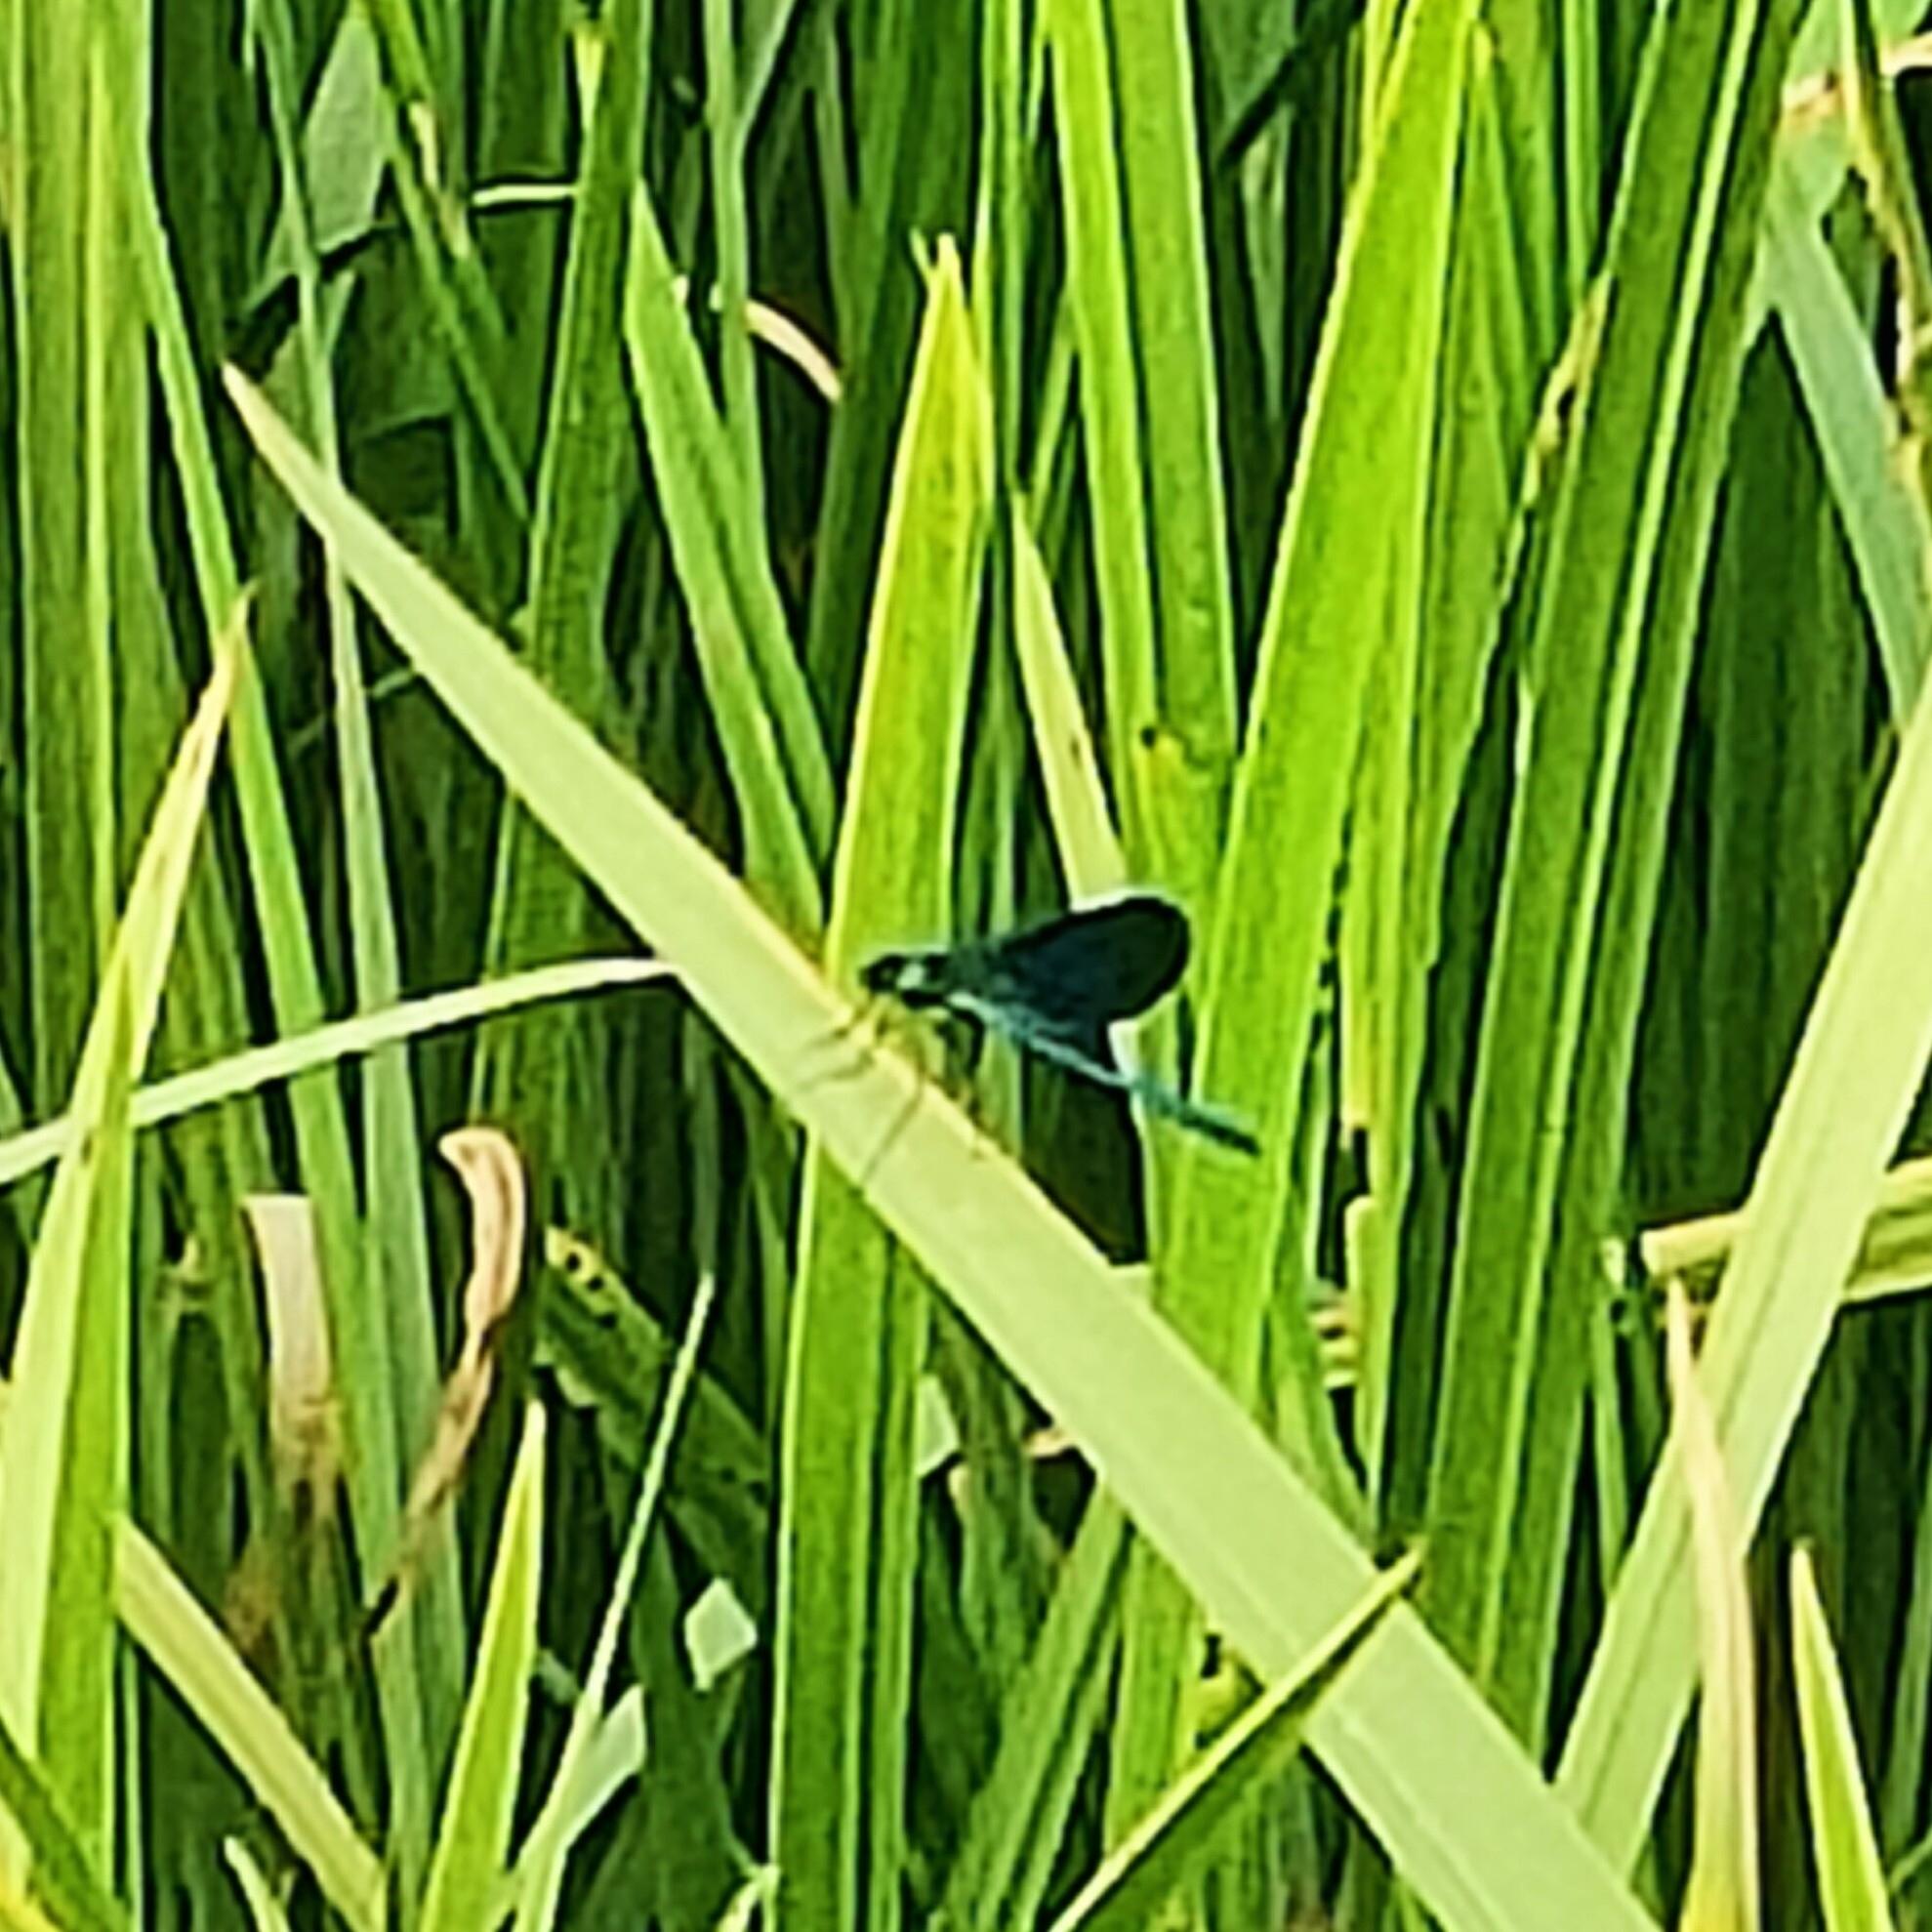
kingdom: Animalia
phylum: Arthropoda
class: Insecta
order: Odonata
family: Calopterygidae
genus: Calopteryx
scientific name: Calopteryx splendens
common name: Banded demoiselle
